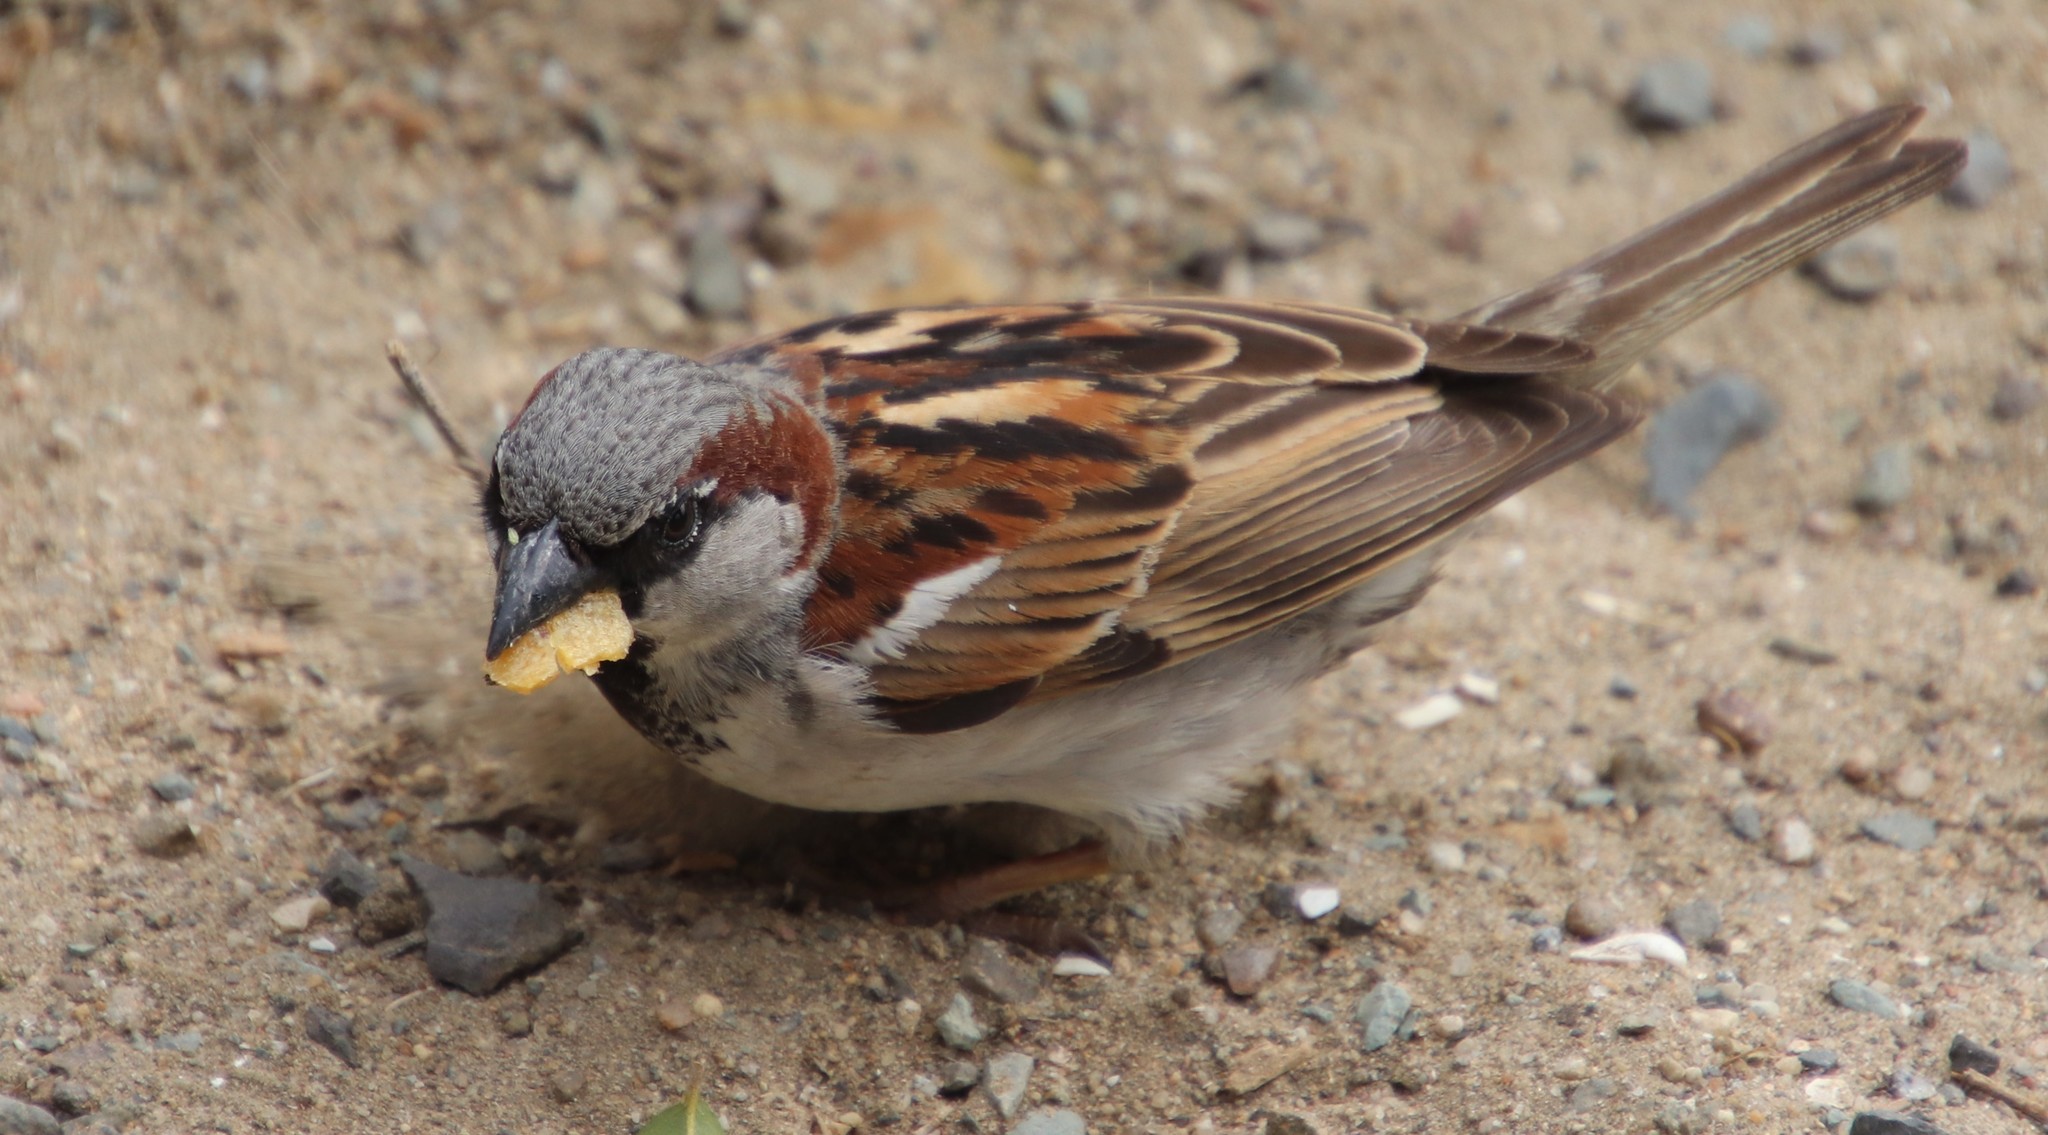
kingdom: Animalia
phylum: Chordata
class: Aves
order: Passeriformes
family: Passeridae
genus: Passer
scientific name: Passer domesticus
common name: House sparrow
